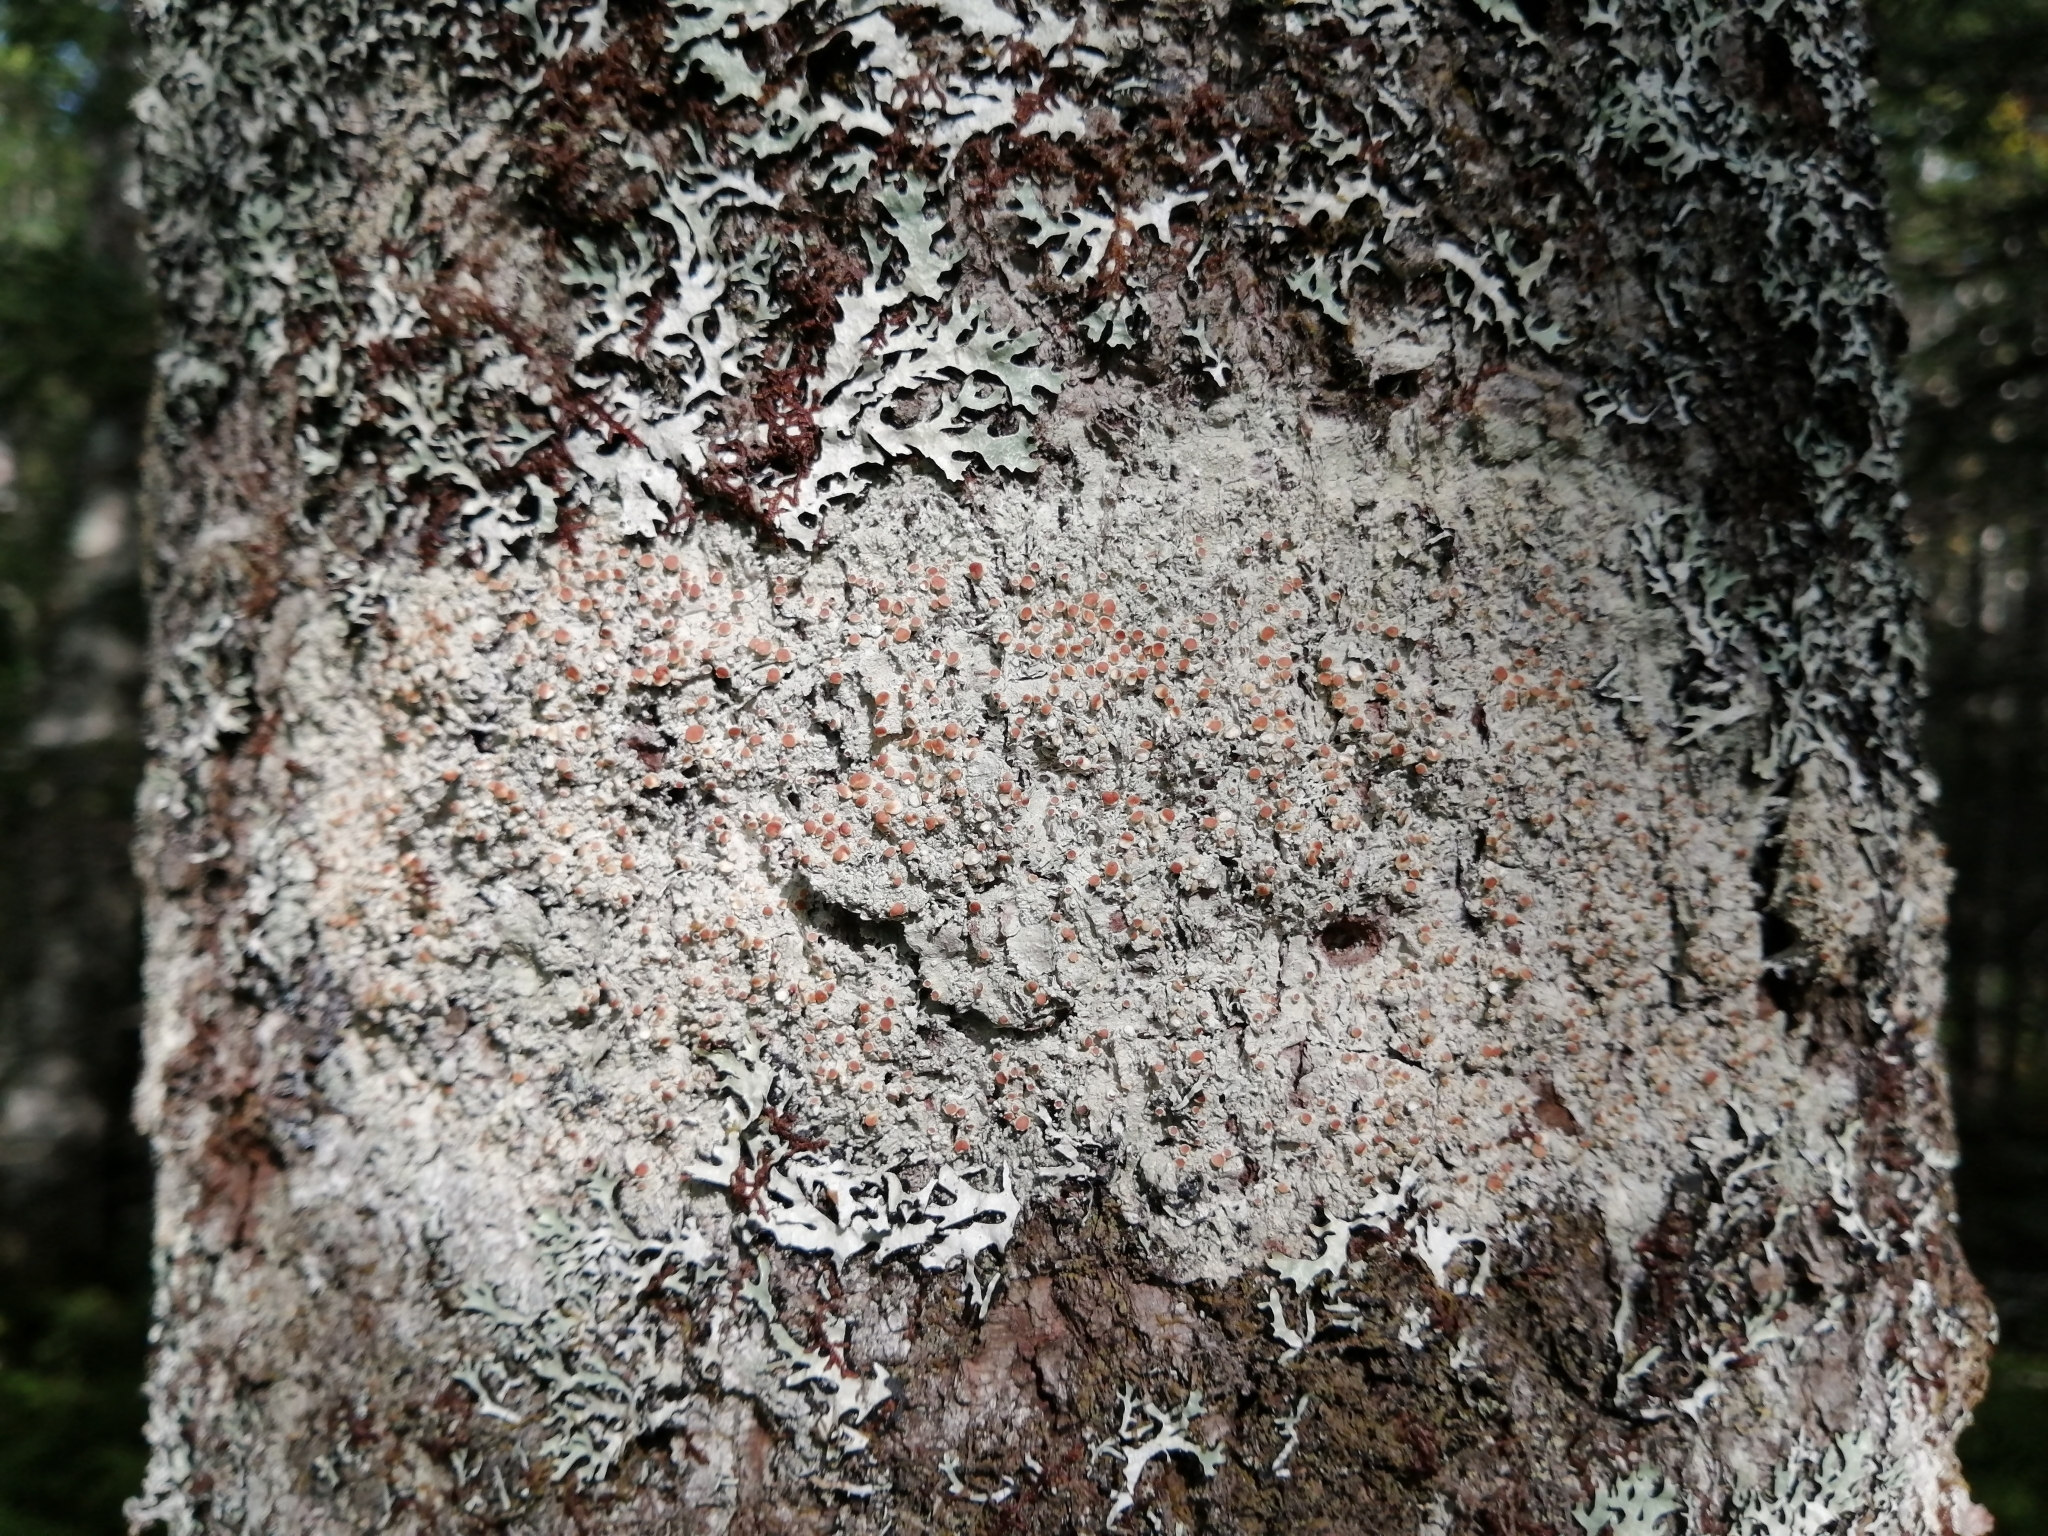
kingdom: Fungi
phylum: Ascomycota
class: Lecanoromycetes
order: Lecanorales
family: Sarrameanaceae
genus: Loxospora
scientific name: Loxospora ochrophaea
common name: Eastern ragged-rim lichen
